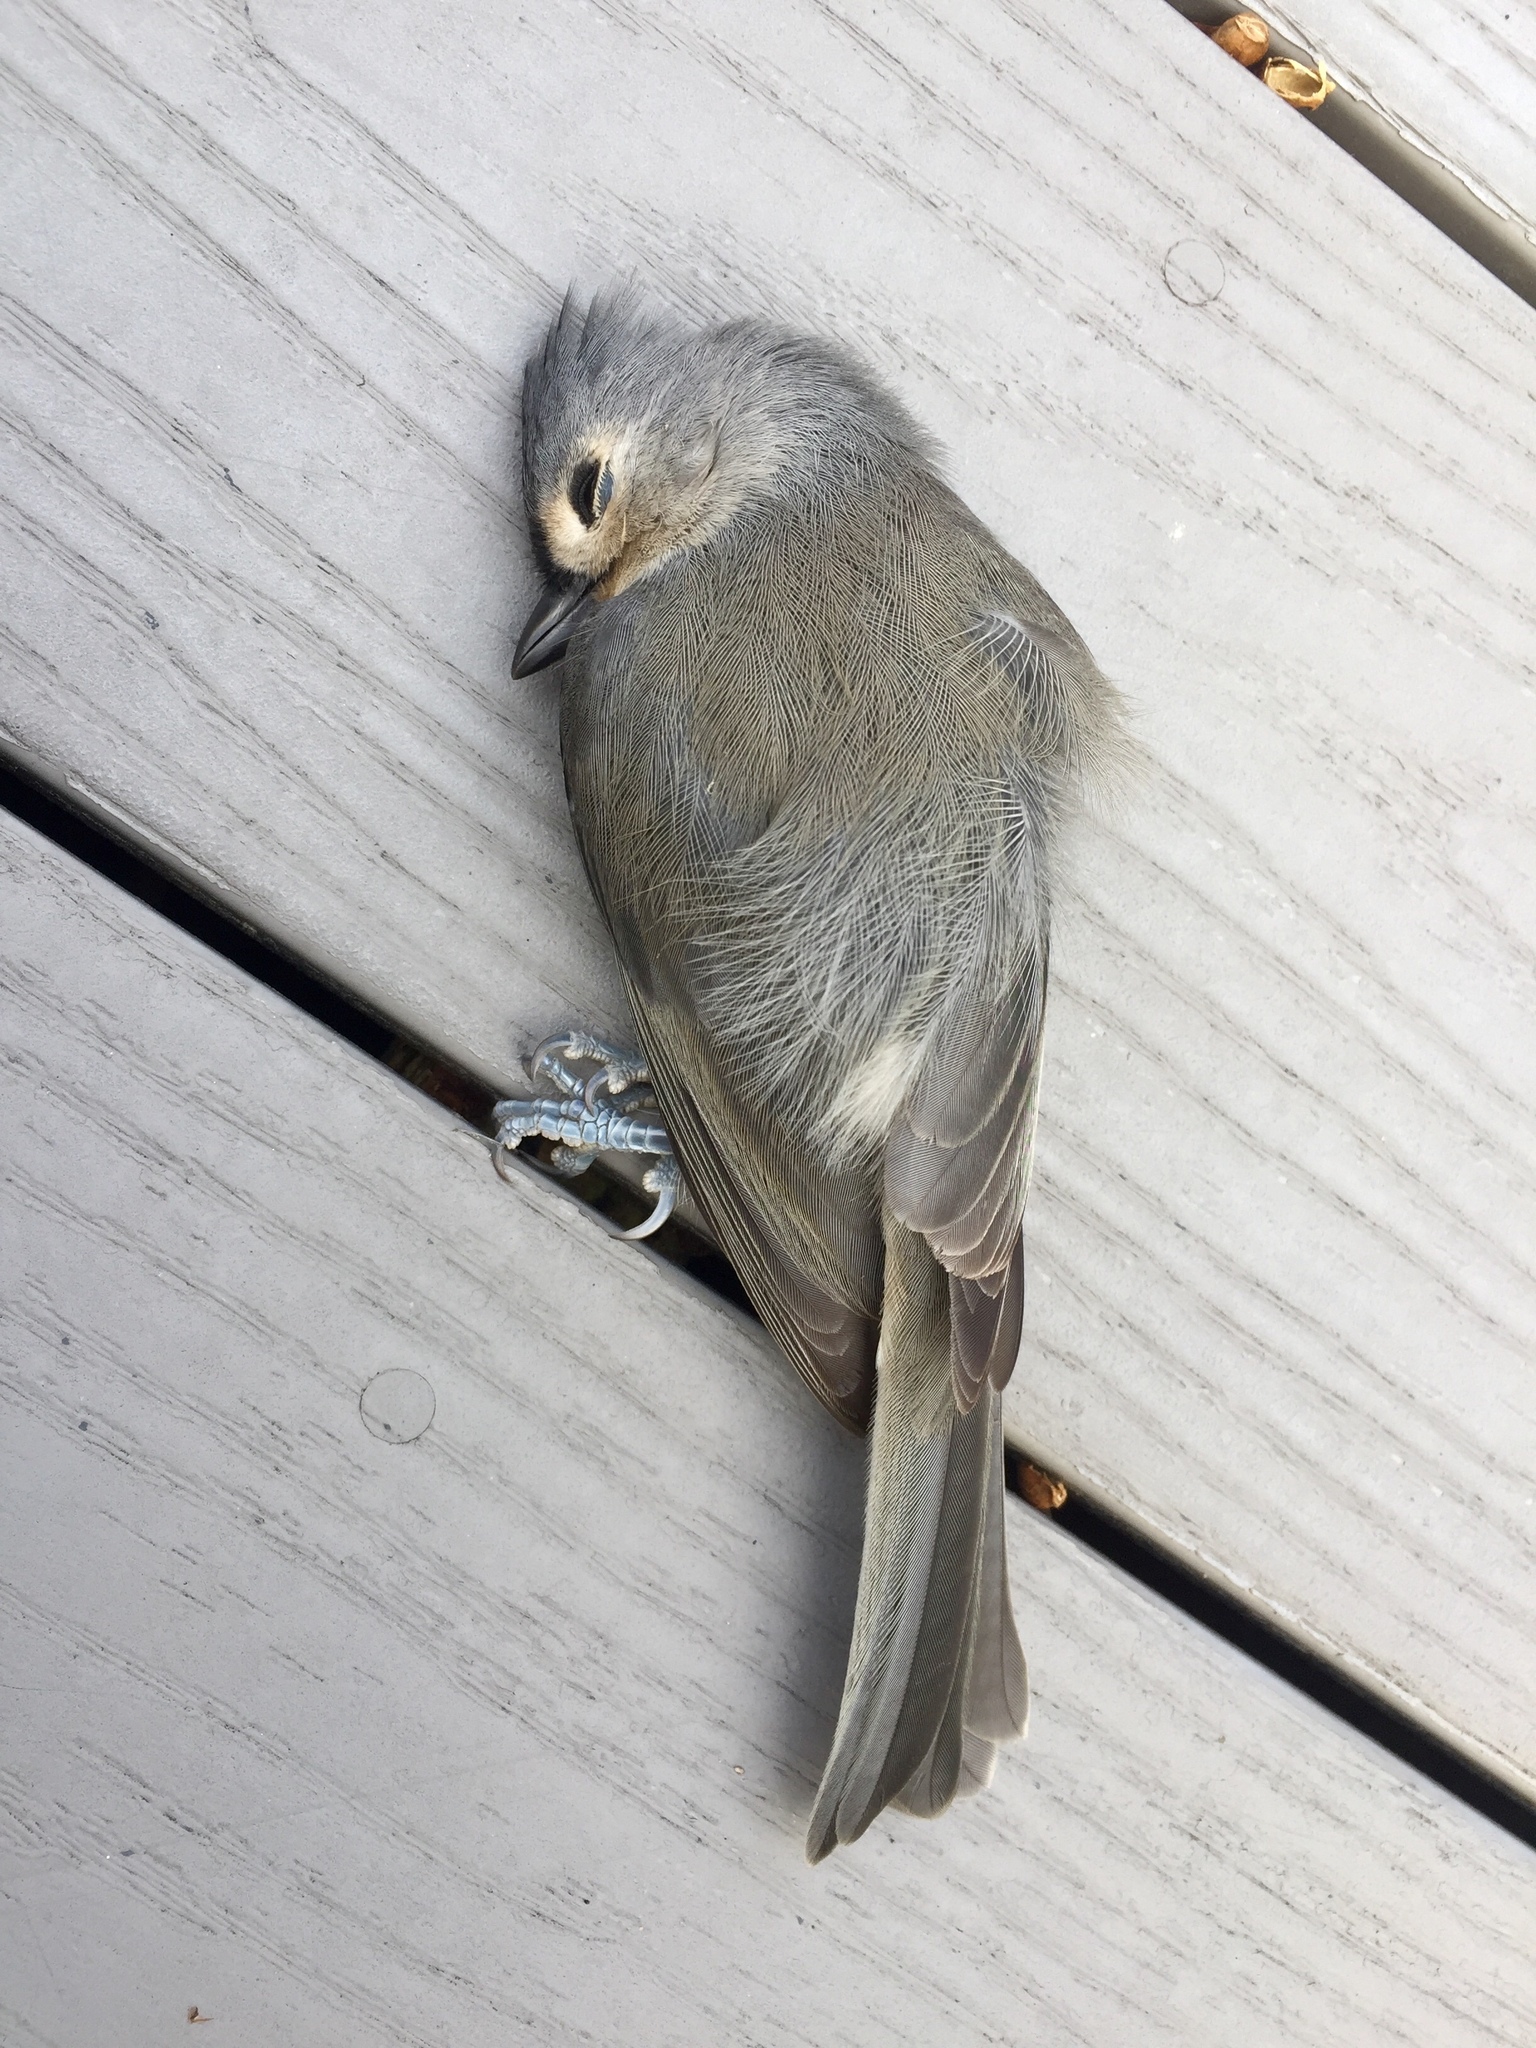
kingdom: Animalia
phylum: Chordata
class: Aves
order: Passeriformes
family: Paridae
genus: Baeolophus
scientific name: Baeolophus bicolor
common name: Tufted titmouse
